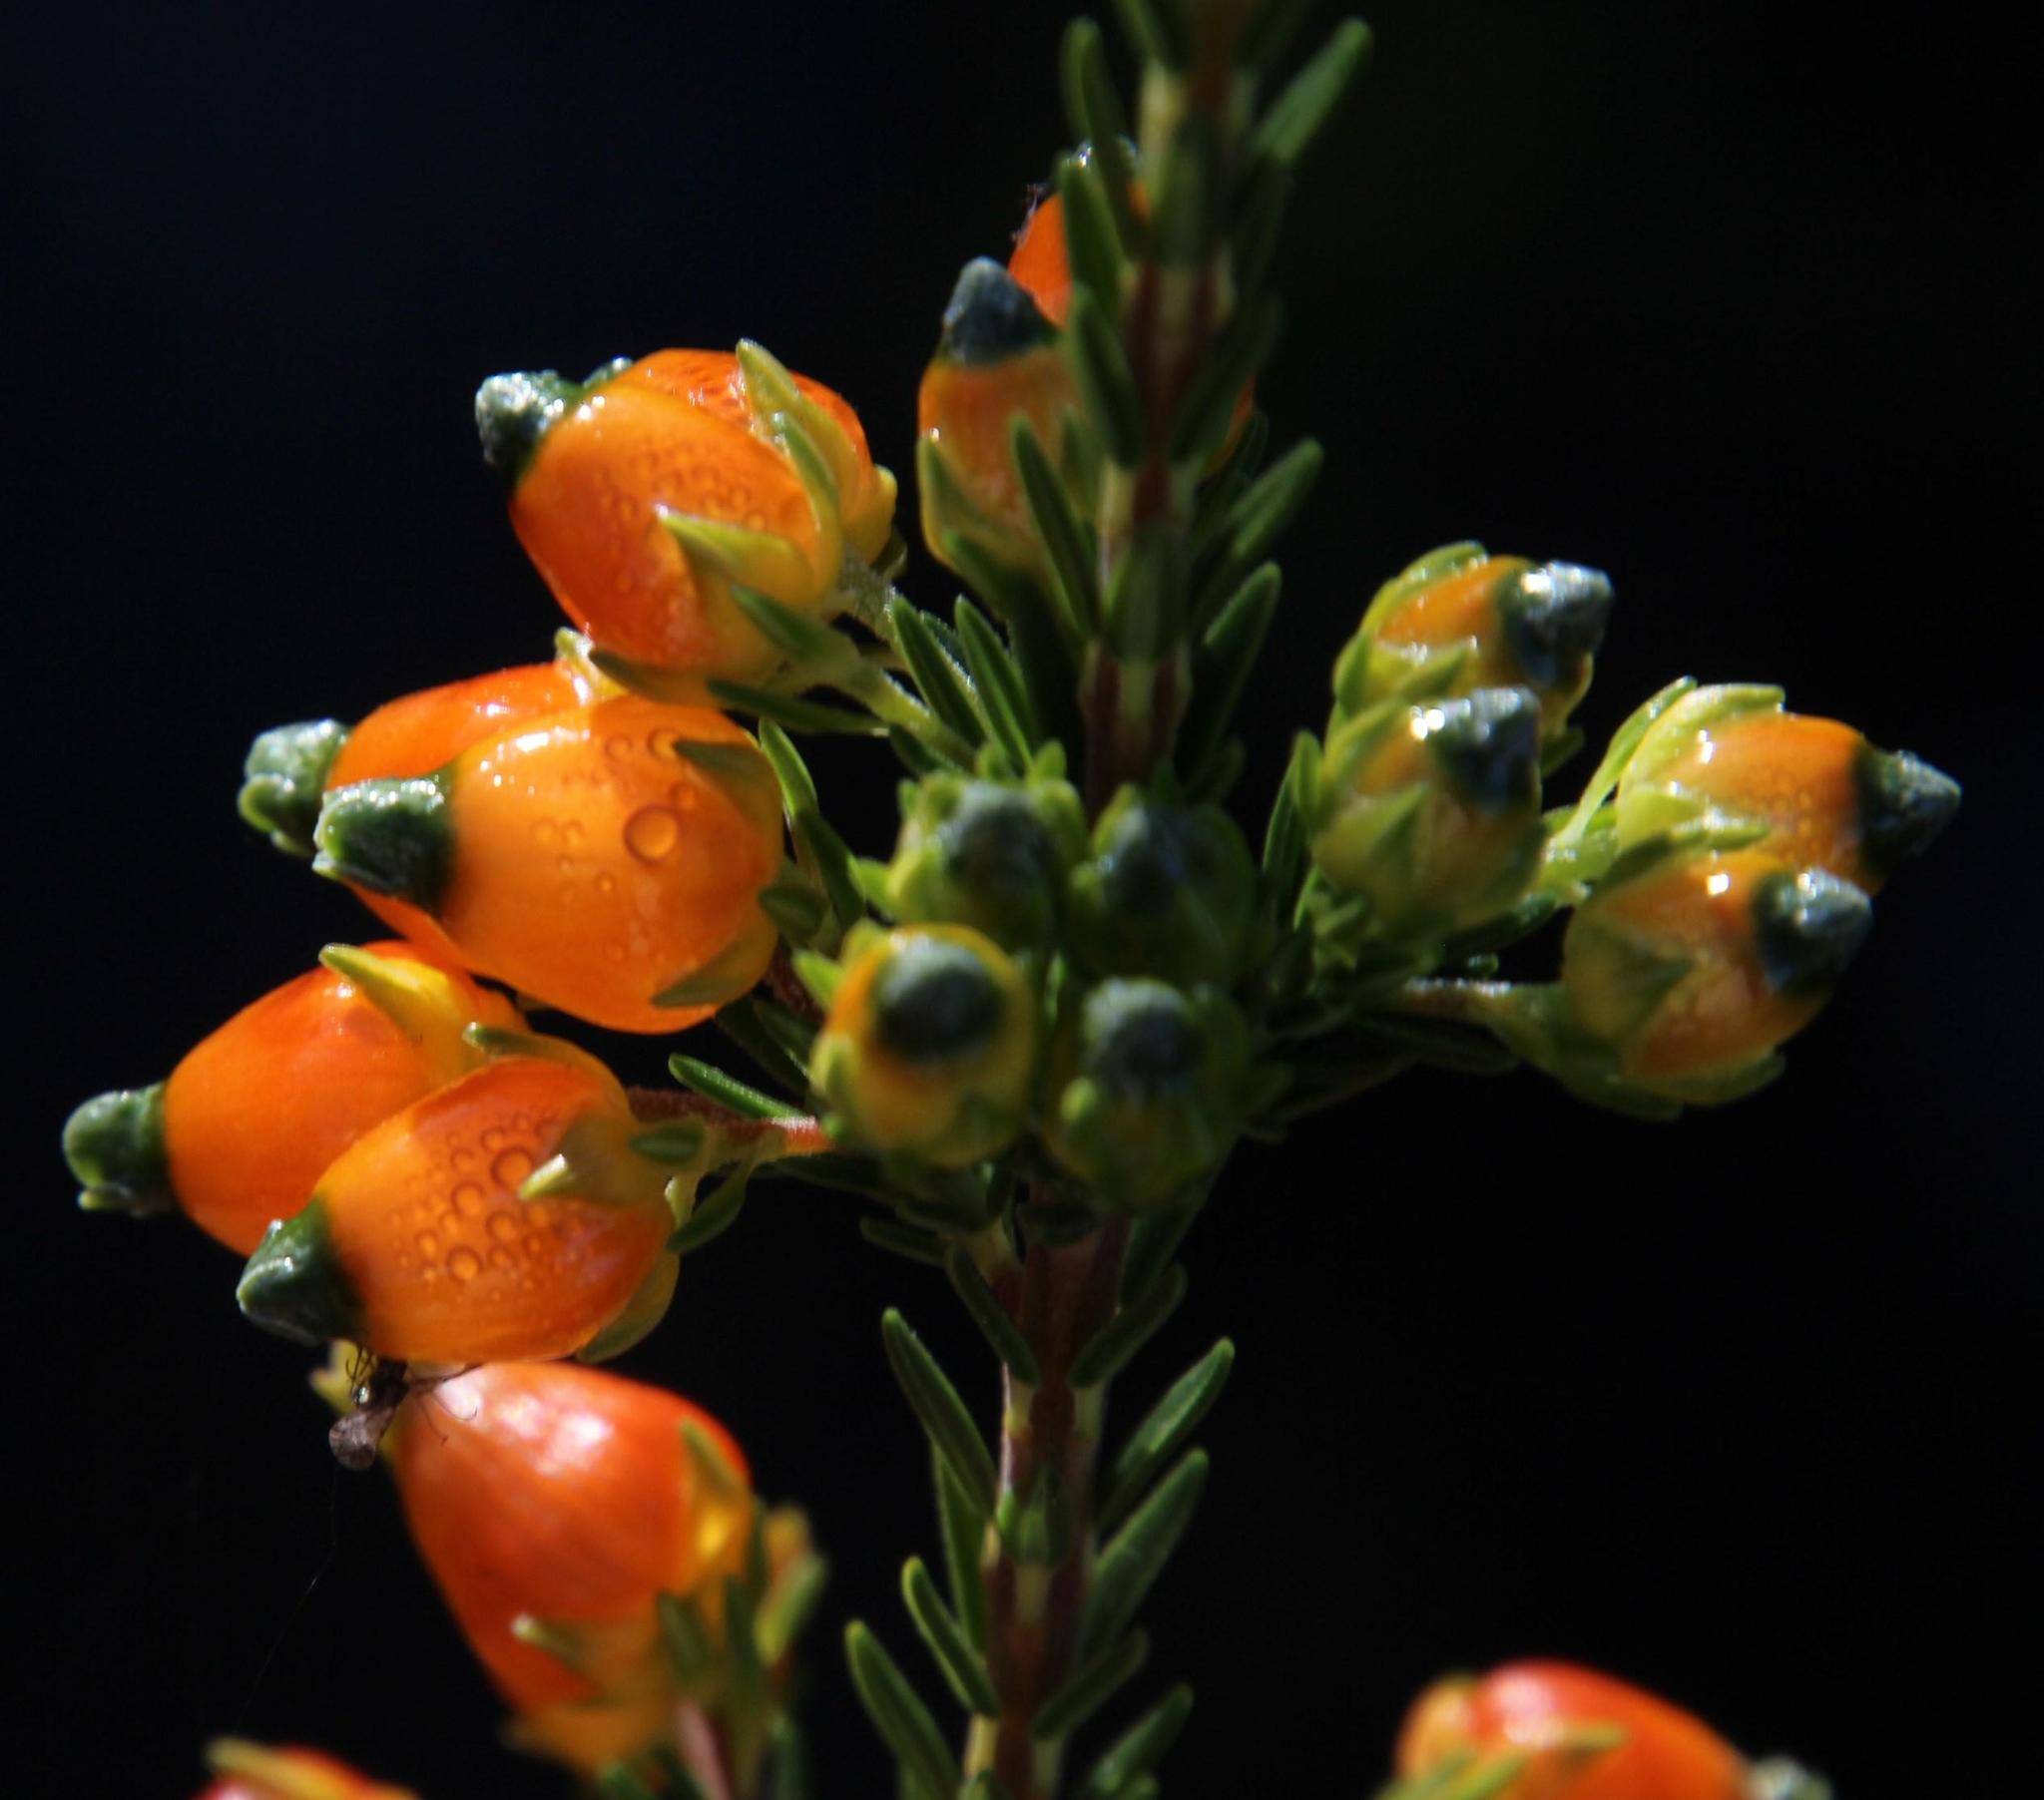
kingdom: Plantae
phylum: Tracheophyta
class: Magnoliopsida
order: Ericales
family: Ericaceae
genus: Erica
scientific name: Erica blenna
